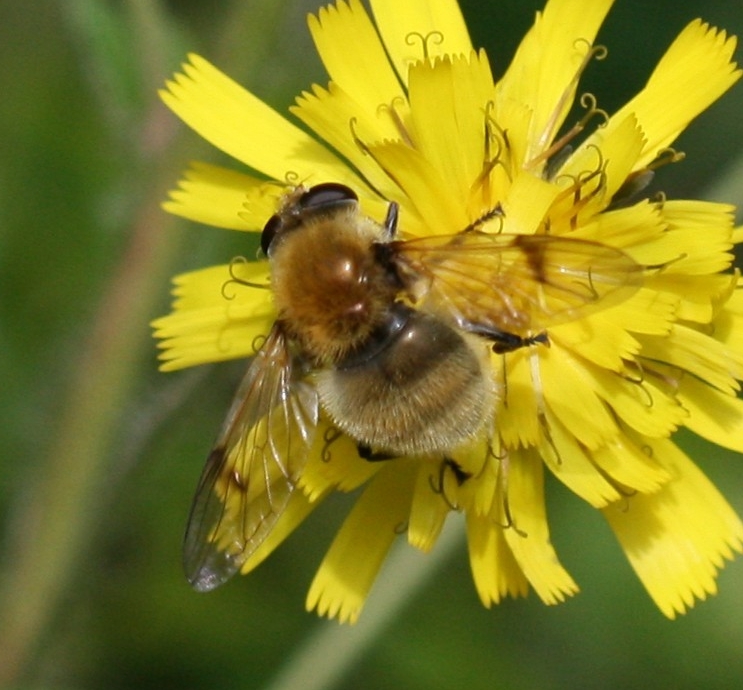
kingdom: Animalia
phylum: Arthropoda
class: Insecta
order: Diptera
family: Syrphidae
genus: Sericomyia
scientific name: Sericomyia superbiens
